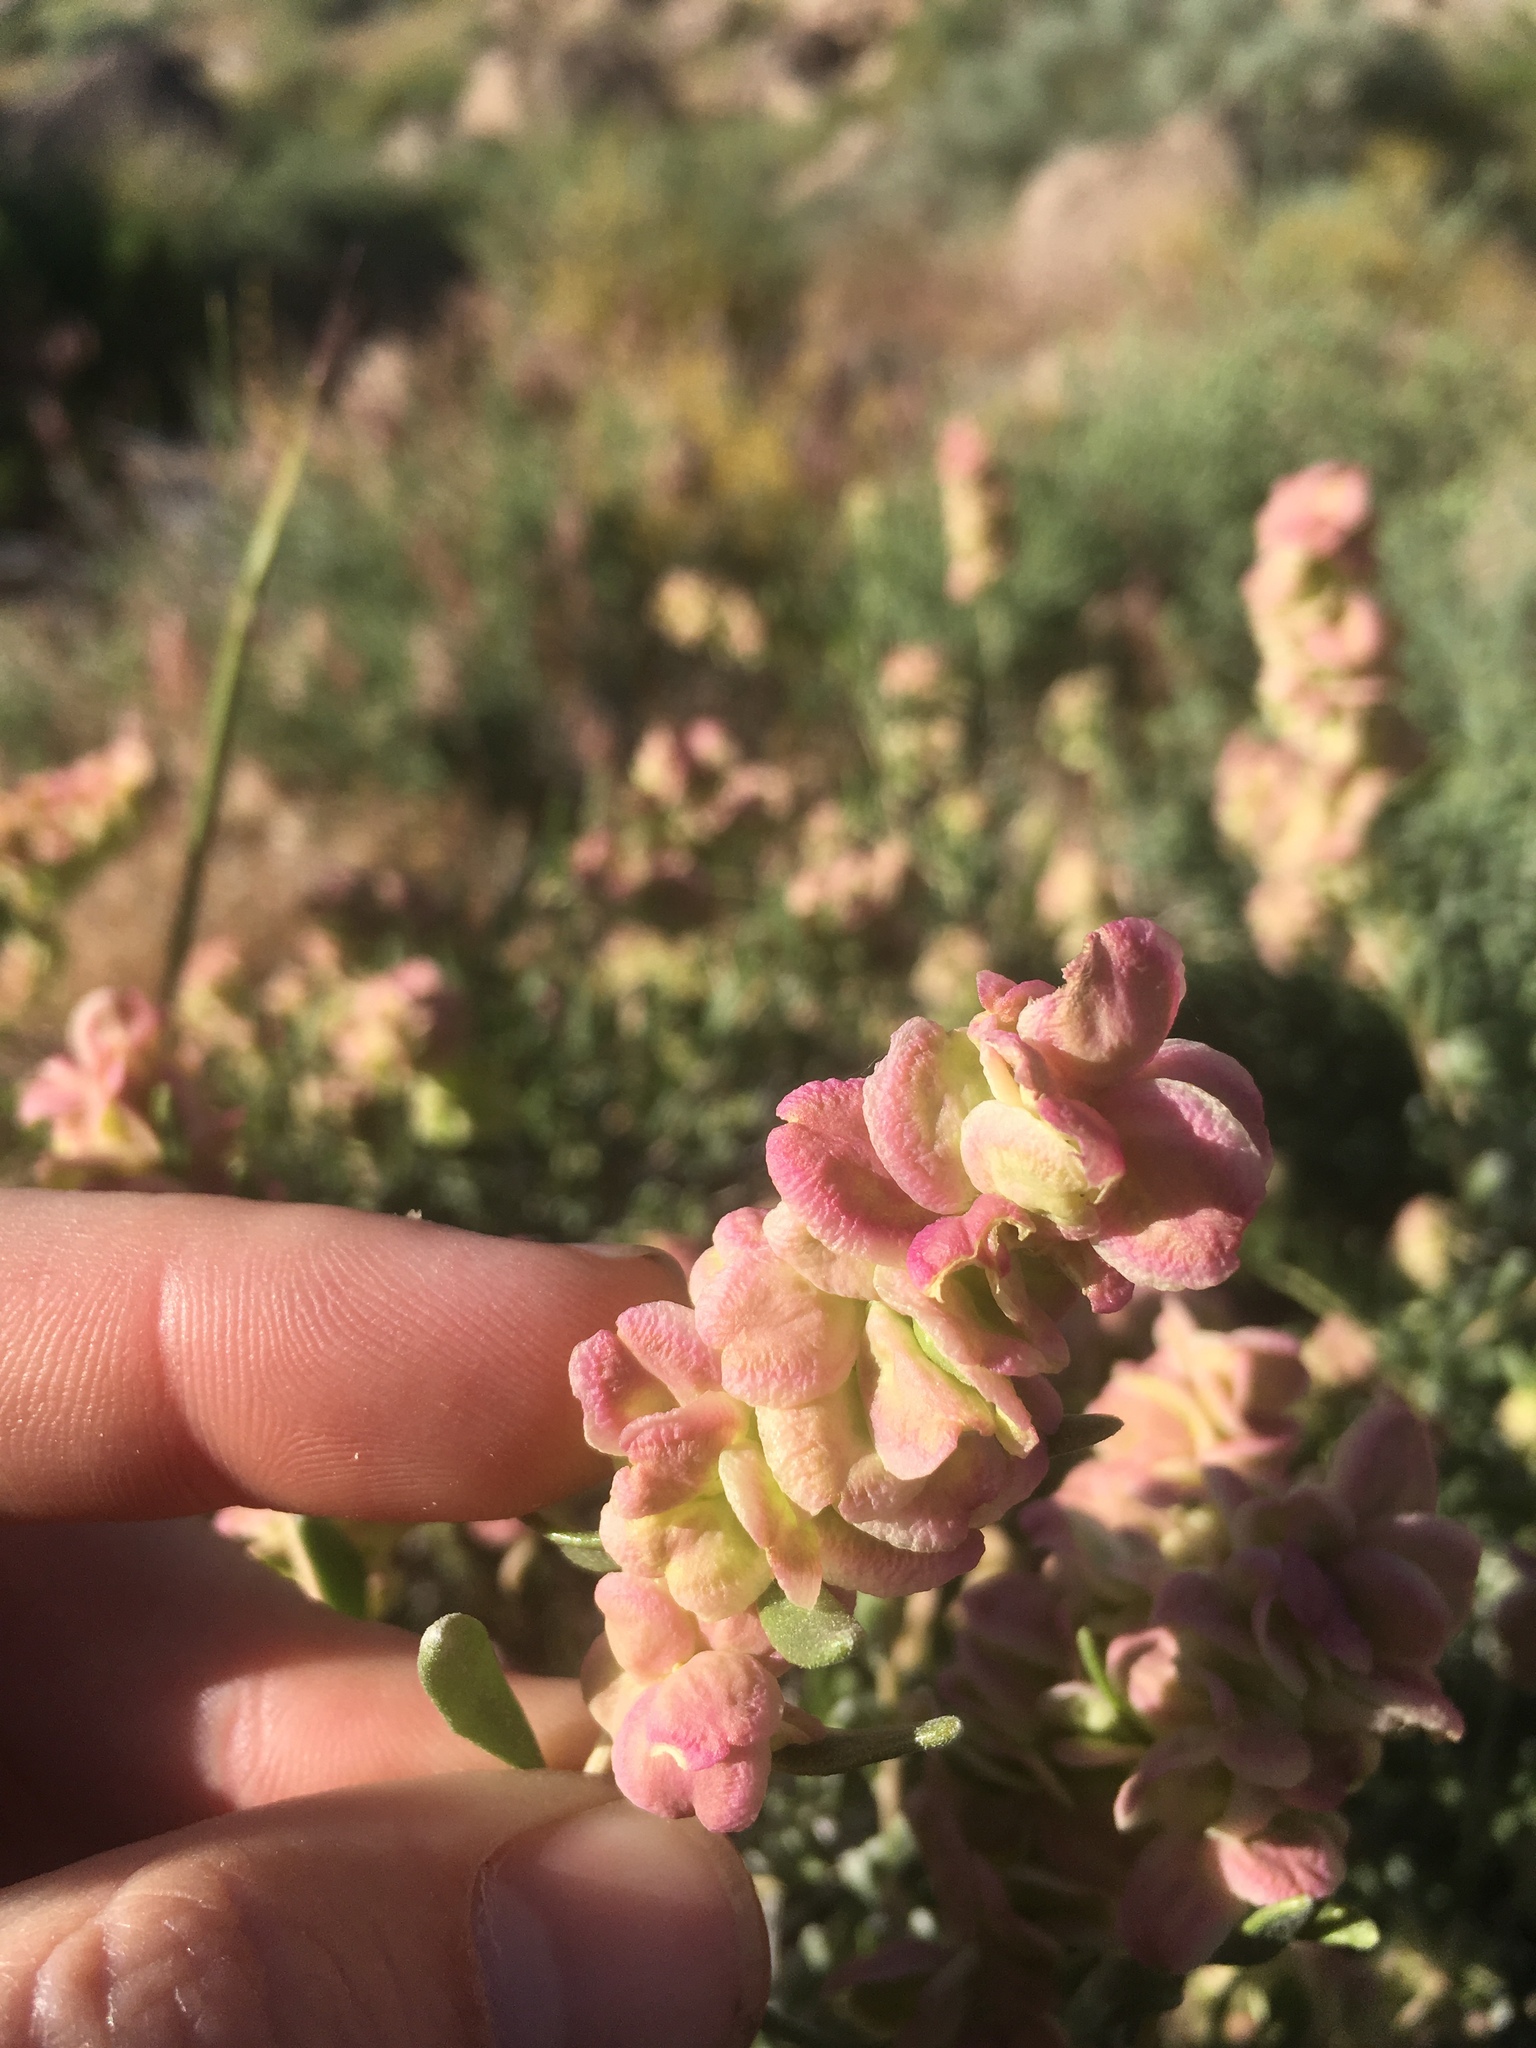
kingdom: Plantae
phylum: Tracheophyta
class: Magnoliopsida
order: Caryophyllales
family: Amaranthaceae
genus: Grayia
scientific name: Grayia spinosa
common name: Spiny hopsage
